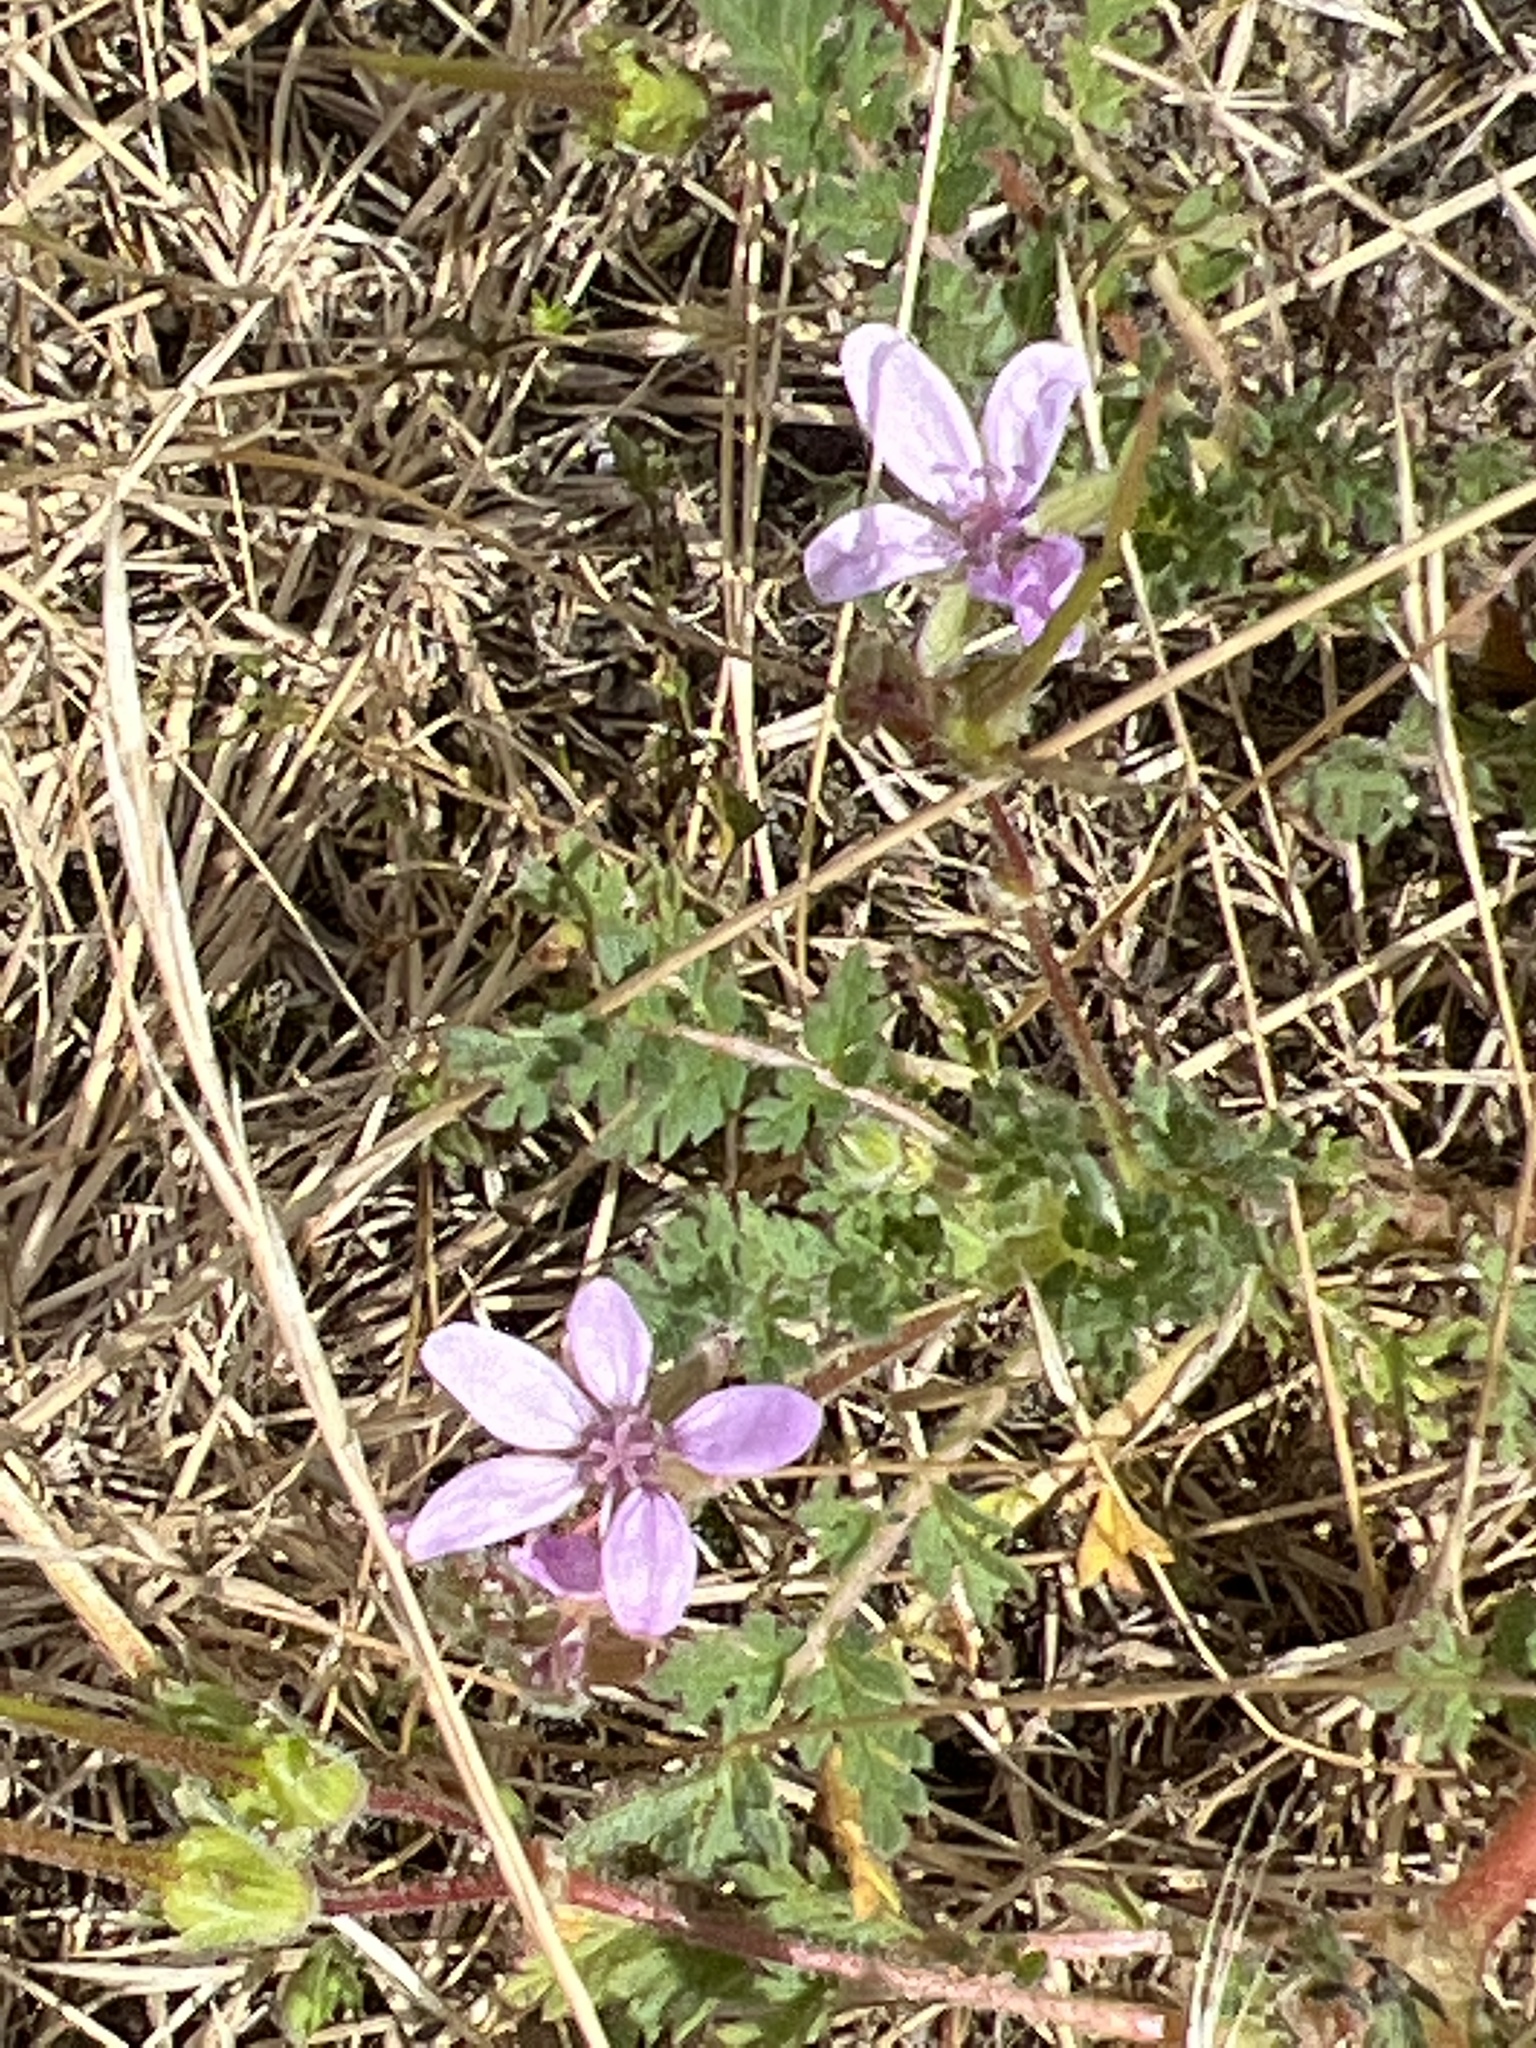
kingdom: Plantae
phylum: Tracheophyta
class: Magnoliopsida
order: Geraniales
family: Geraniaceae
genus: Erodium
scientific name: Erodium cicutarium
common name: Common stork's-bill
